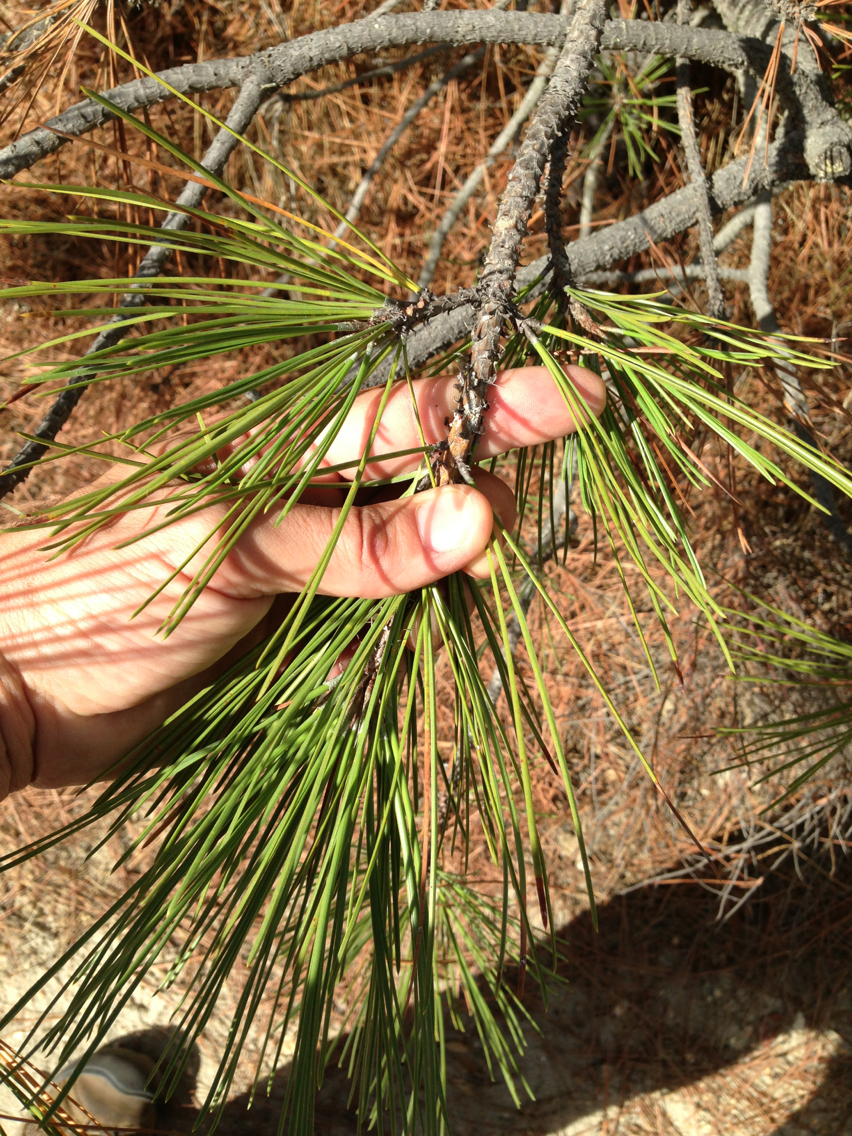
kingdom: Plantae
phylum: Tracheophyta
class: Pinopsida
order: Pinales
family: Pinaceae
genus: Pinus
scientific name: Pinus ponderosa
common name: Western yellow-pine
